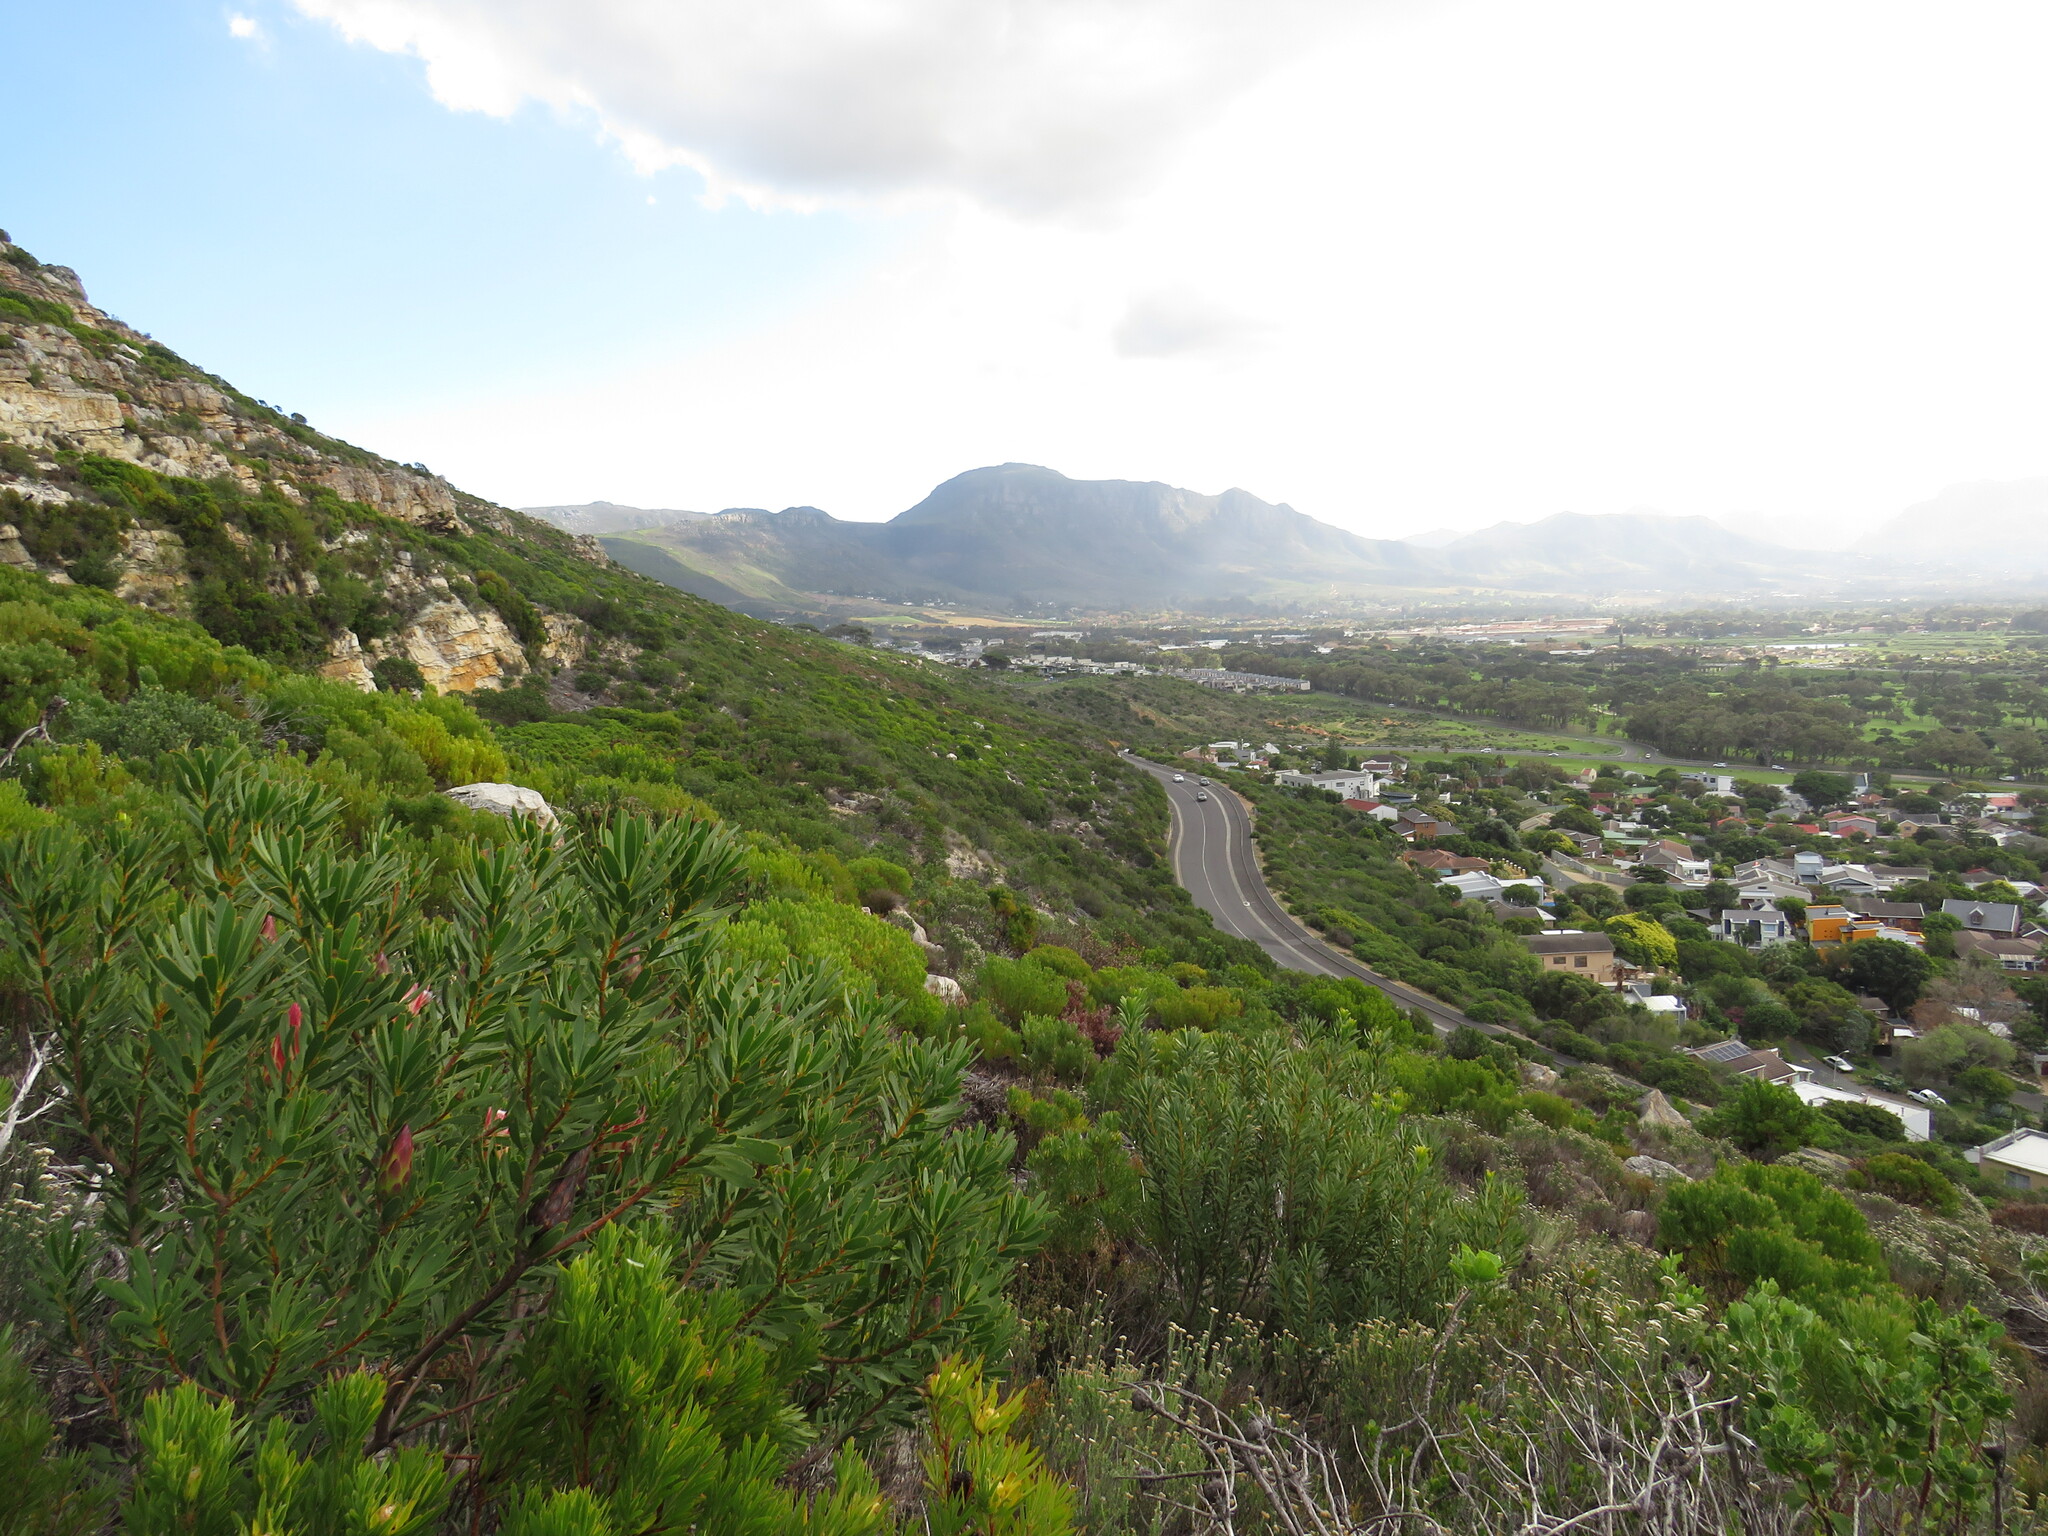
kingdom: Plantae
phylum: Tracheophyta
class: Magnoliopsida
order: Proteales
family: Proteaceae
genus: Protea
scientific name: Protea repens
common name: Sugarbush
